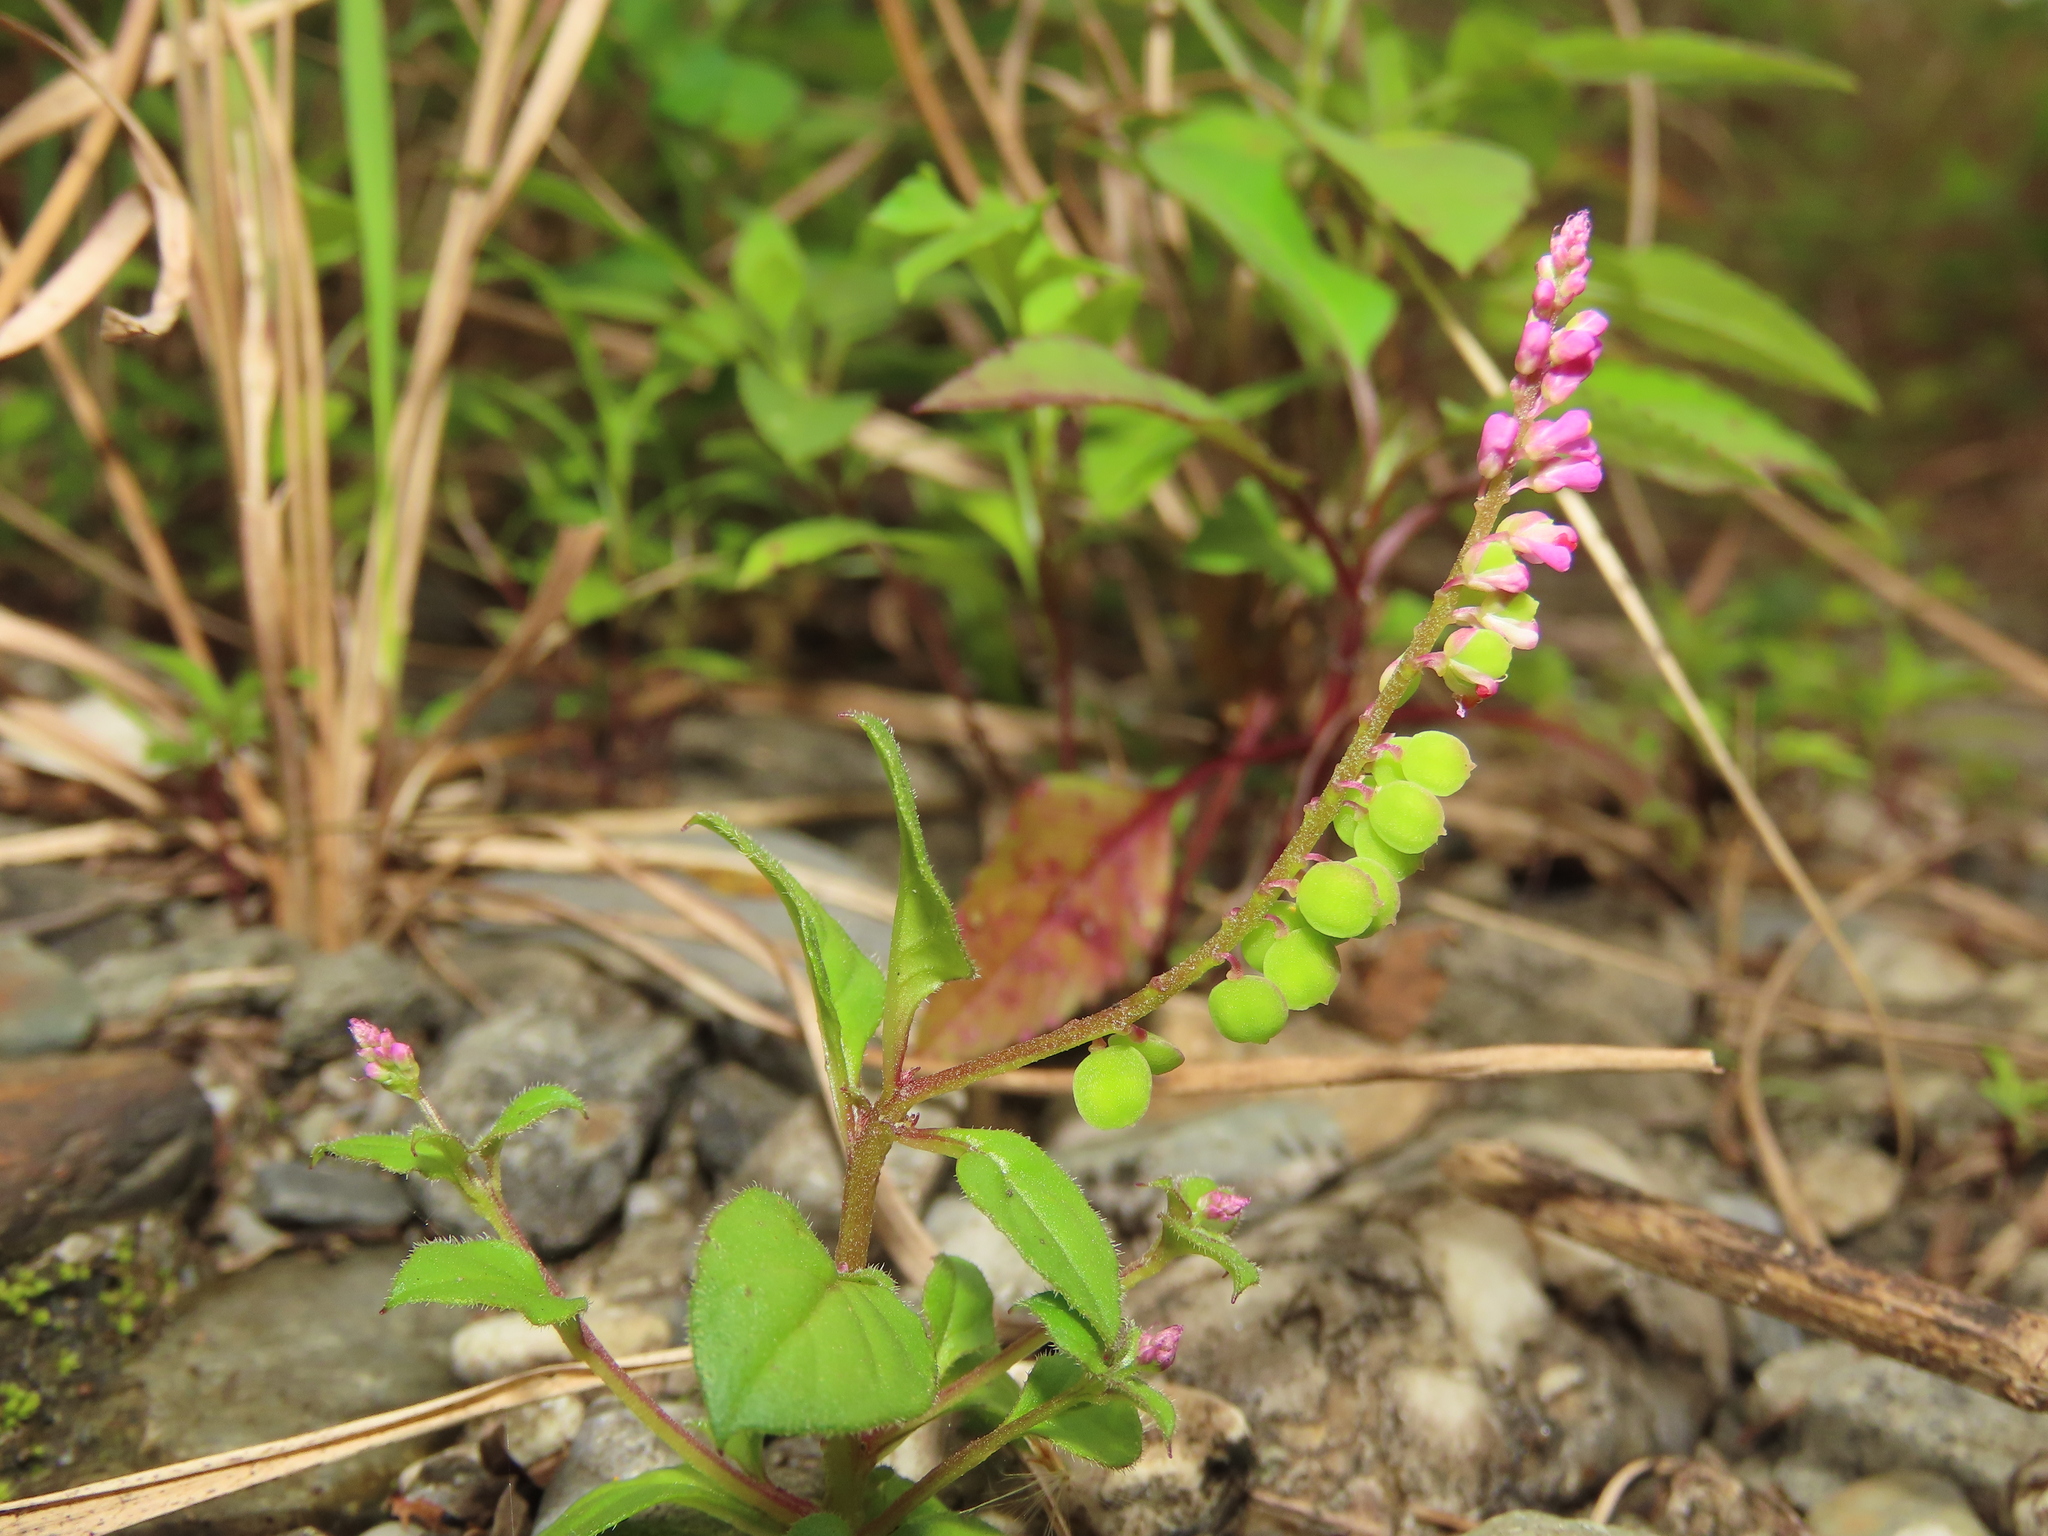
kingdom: Plantae
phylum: Tracheophyta
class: Magnoliopsida
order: Fabales
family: Polygalaceae
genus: Polygala
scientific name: Polygala tatarinowii
